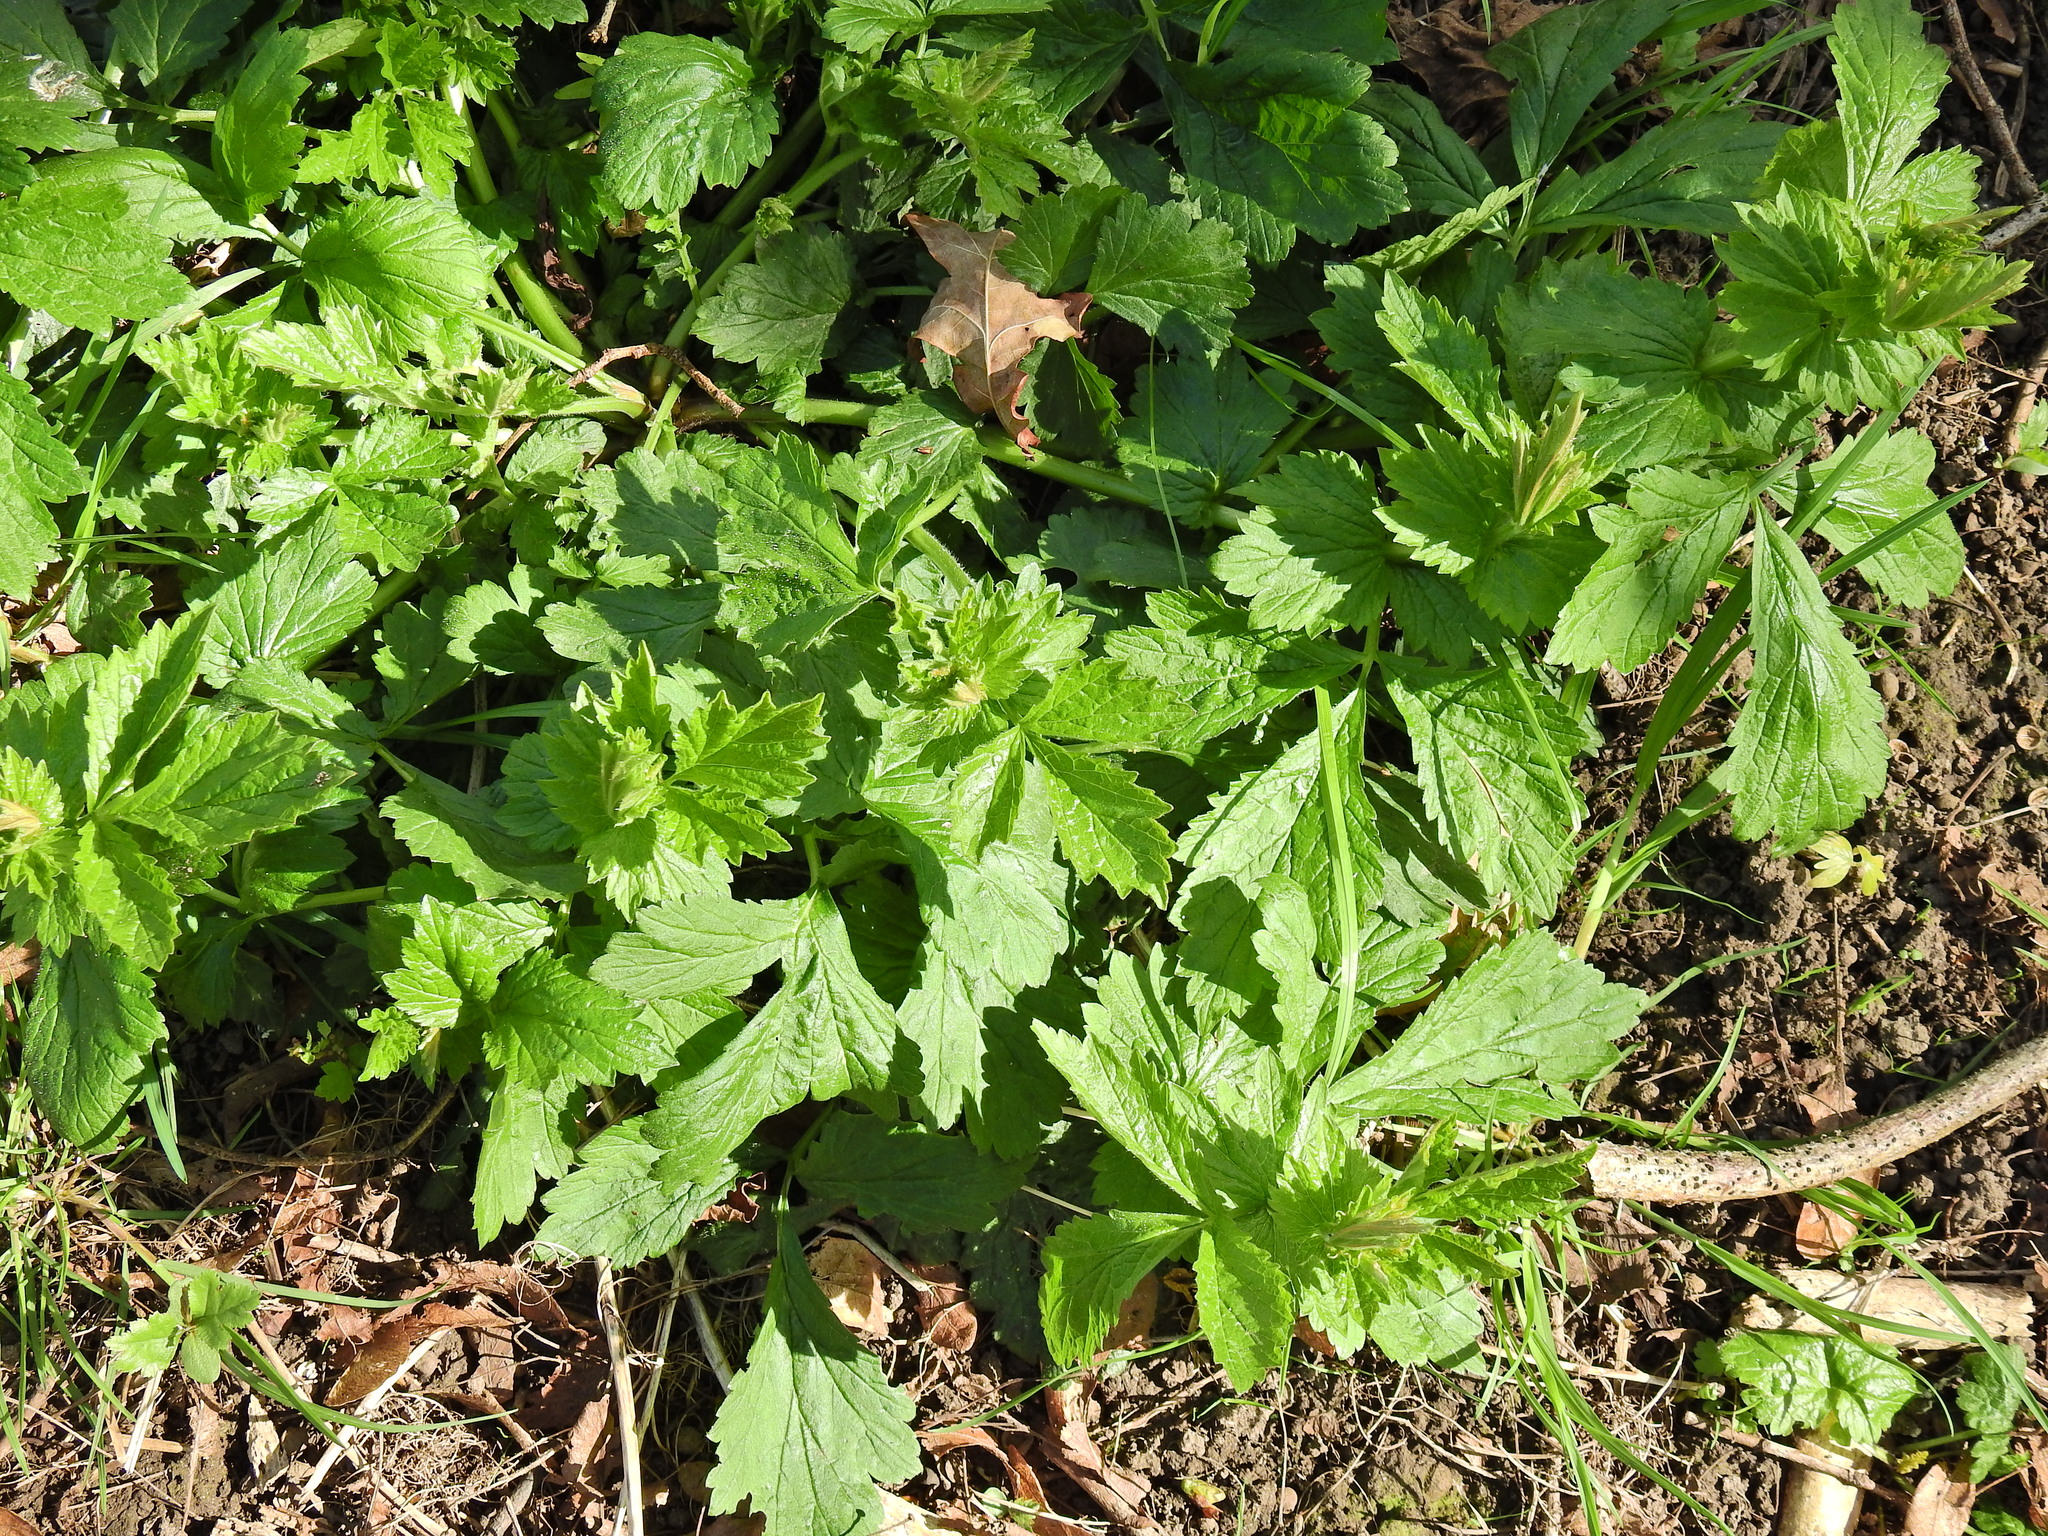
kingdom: Plantae
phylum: Tracheophyta
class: Magnoliopsida
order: Rosales
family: Rosaceae
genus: Geum
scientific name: Geum urbanum
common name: Wood avens
